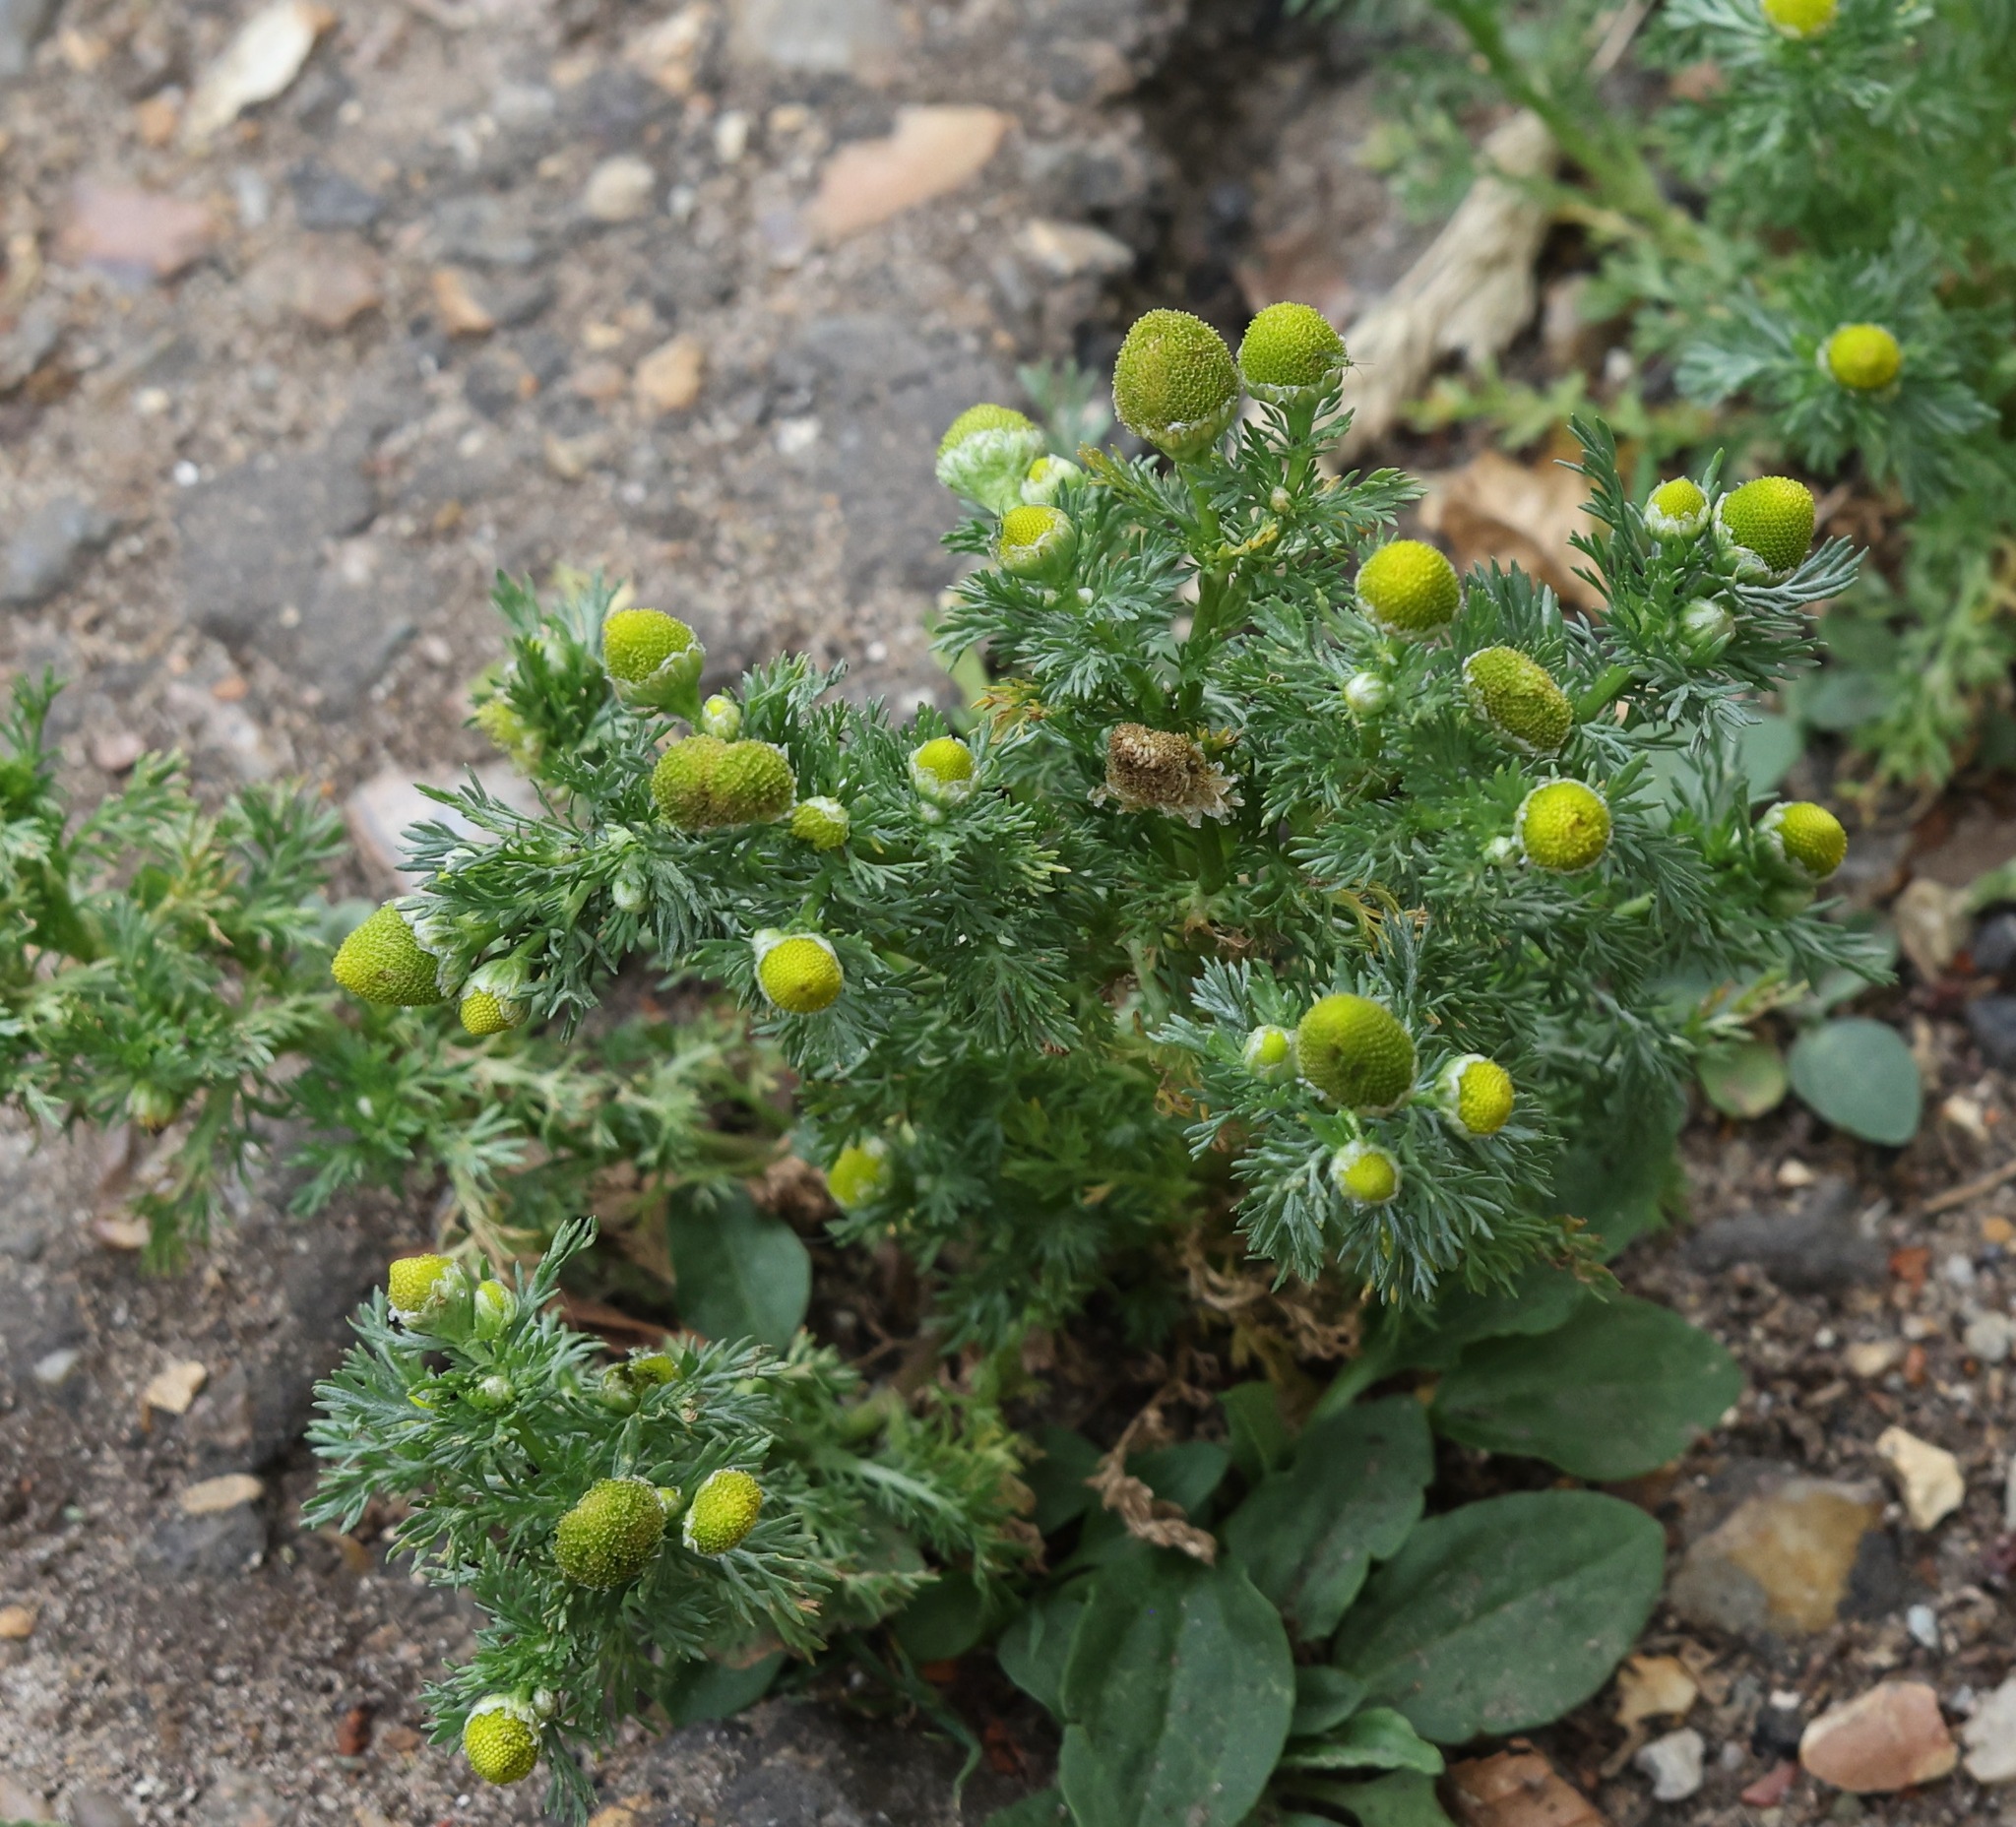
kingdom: Plantae
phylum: Tracheophyta
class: Magnoliopsida
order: Asterales
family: Asteraceae
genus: Matricaria
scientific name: Matricaria discoidea
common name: Disc mayweed
